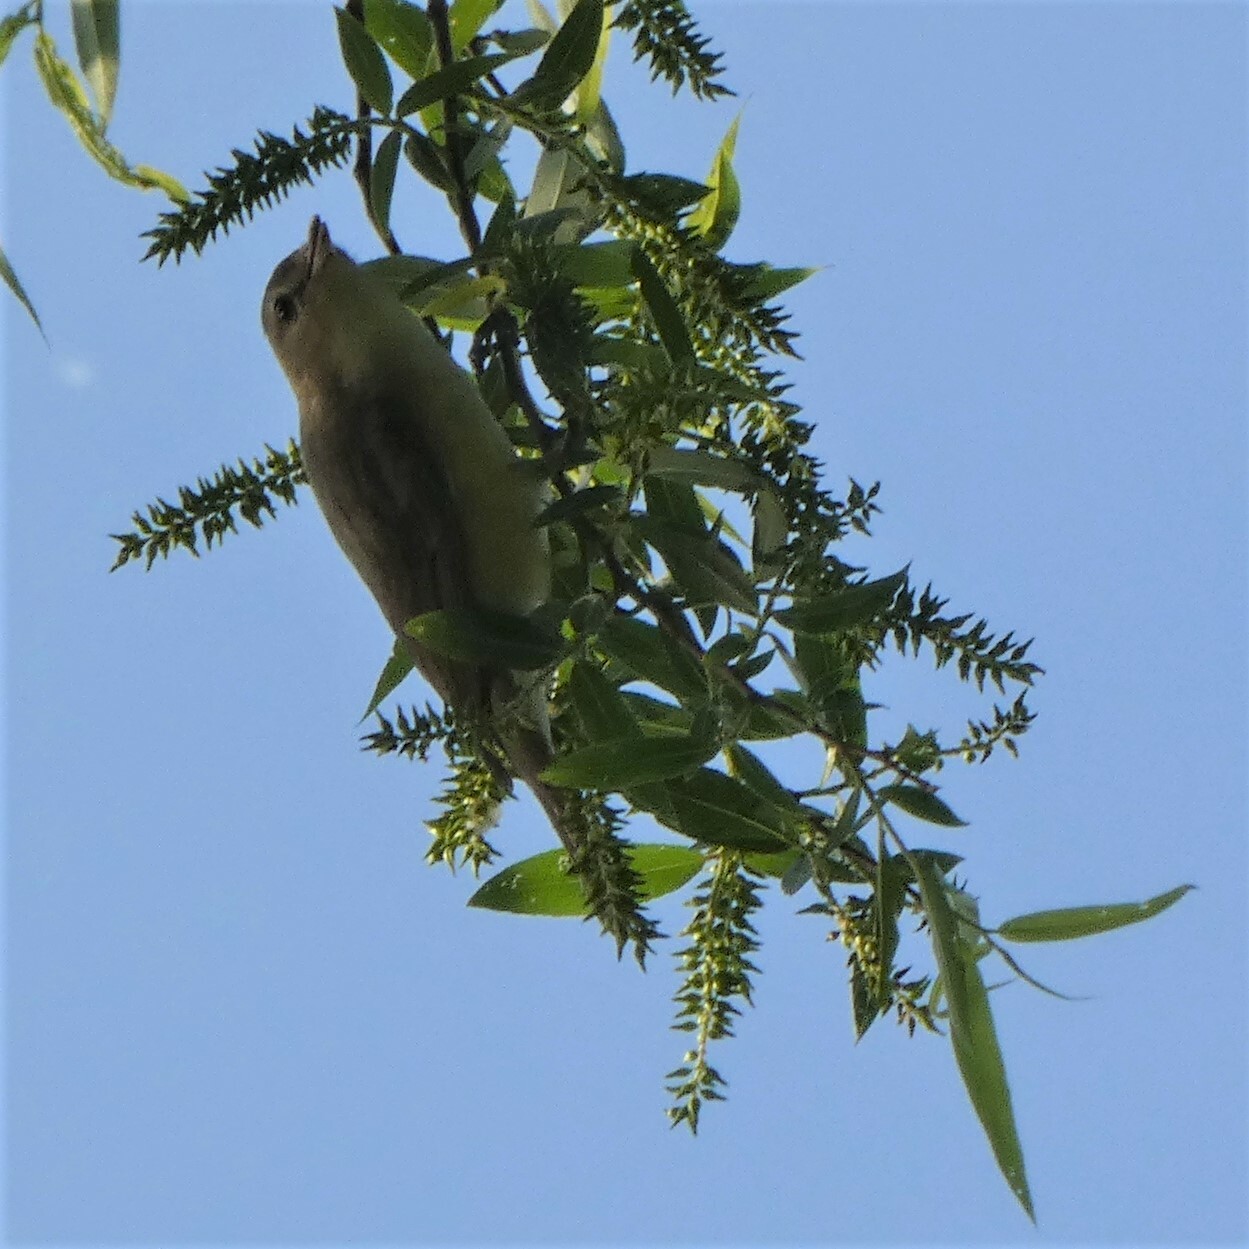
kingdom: Animalia
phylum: Chordata
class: Aves
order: Passeriformes
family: Vireonidae
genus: Vireo
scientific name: Vireo gilvus
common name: Warbling vireo
